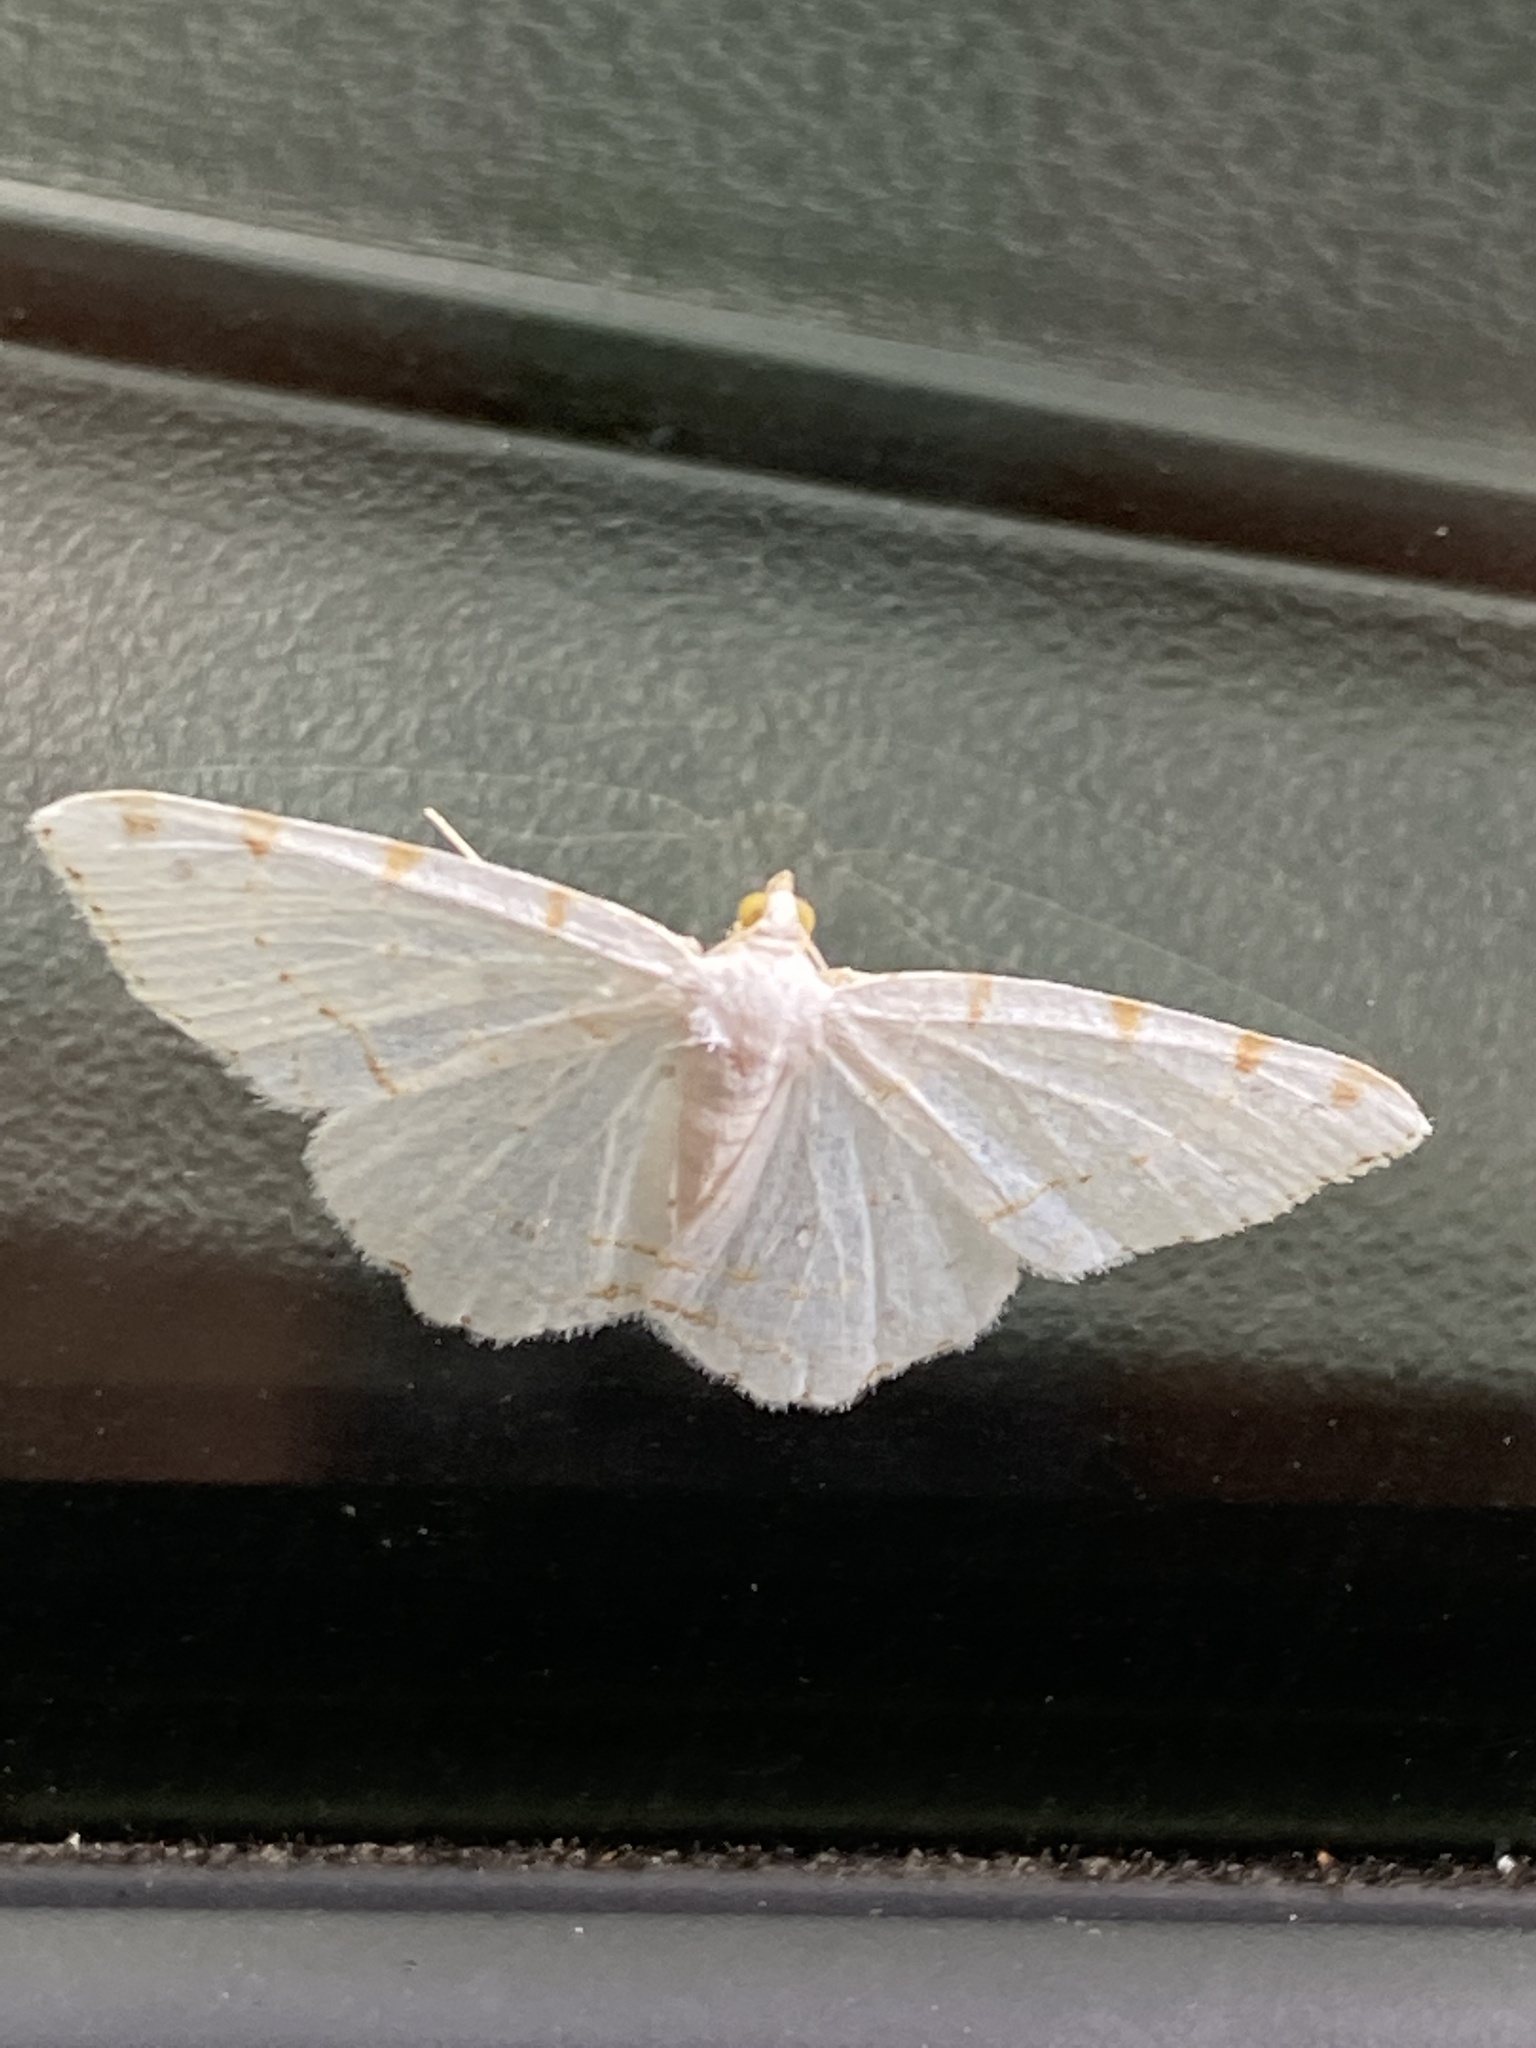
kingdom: Animalia
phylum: Arthropoda
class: Insecta
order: Lepidoptera
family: Geometridae
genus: Macaria
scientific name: Macaria pustularia
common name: Lesser maple spanworm moth
